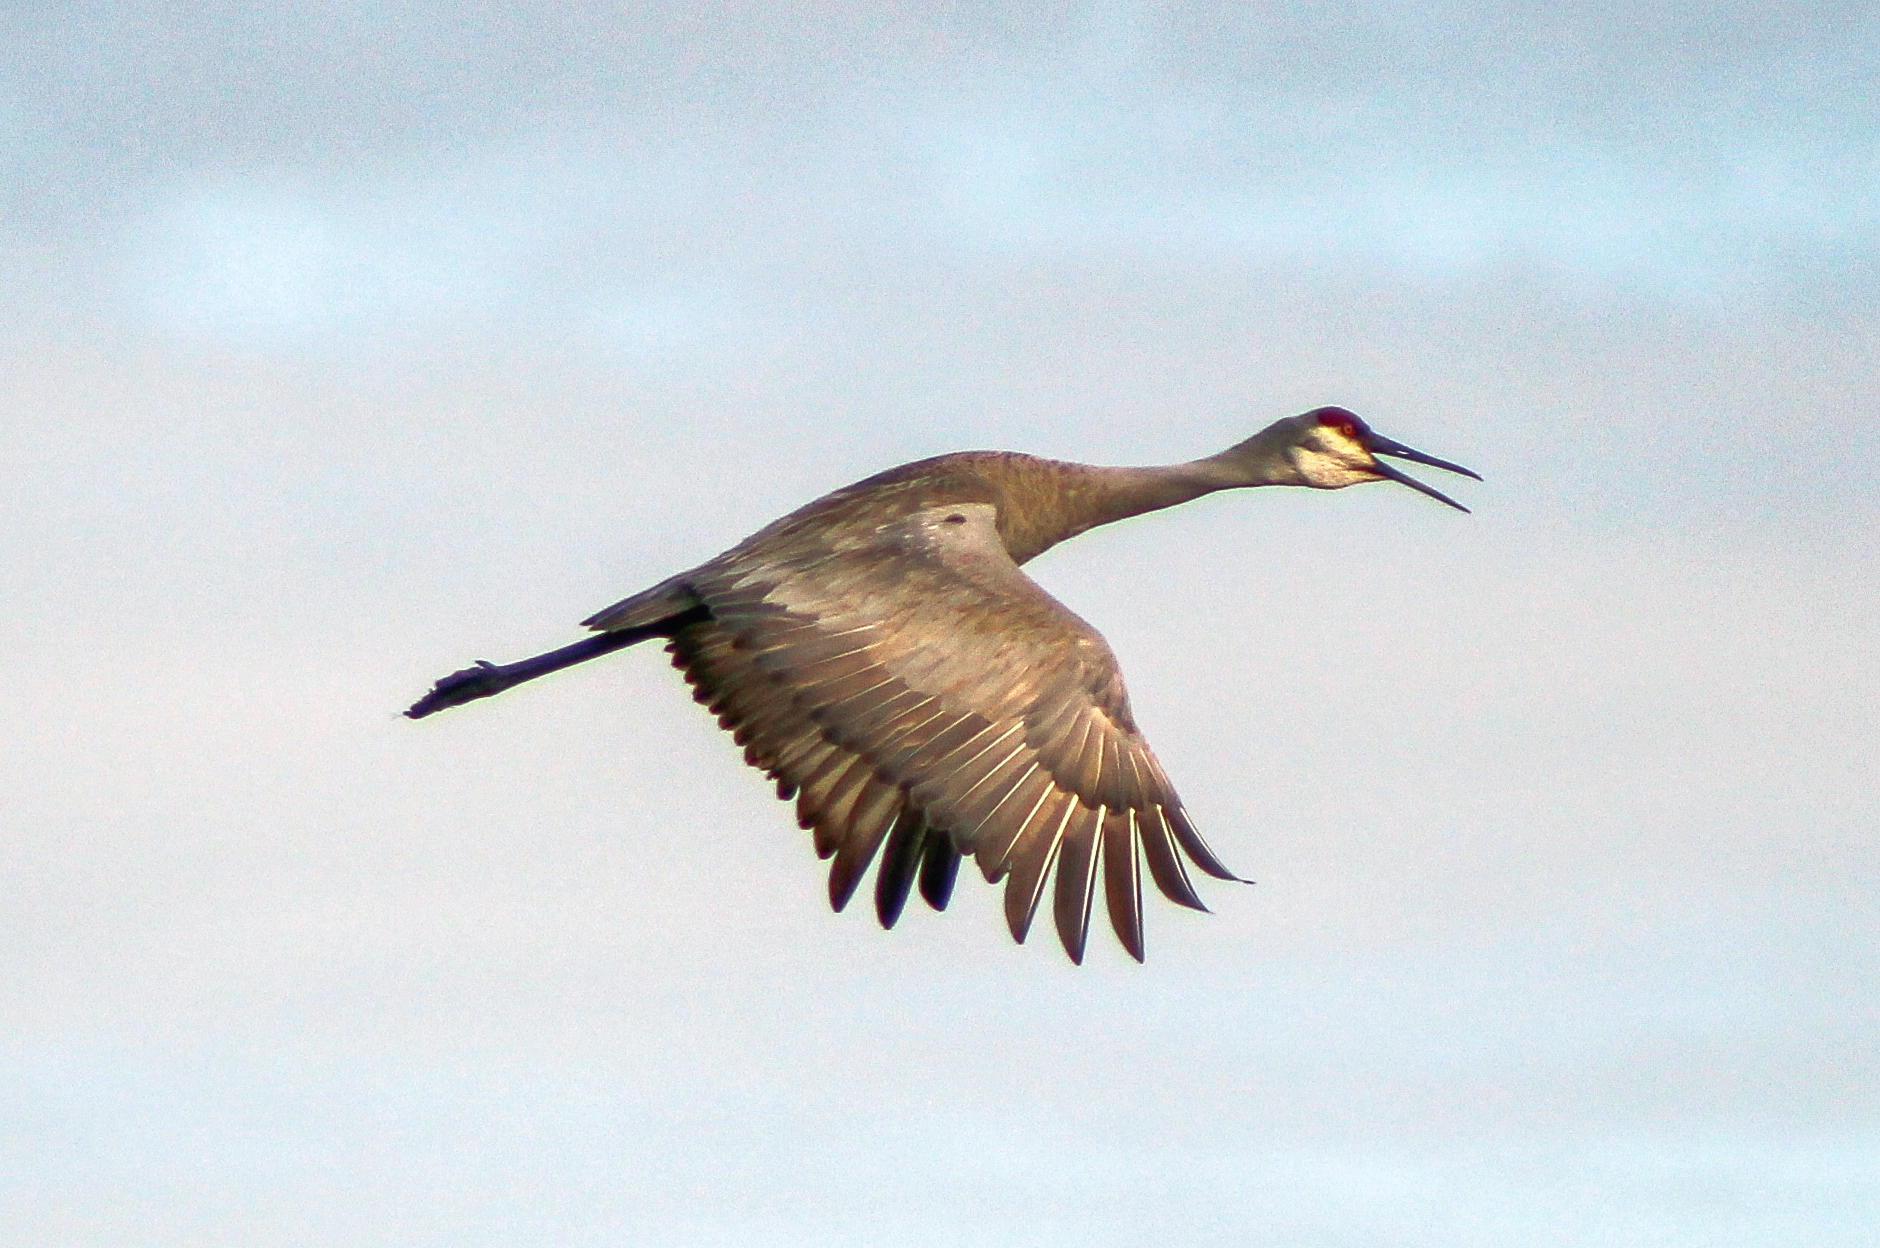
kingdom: Animalia
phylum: Chordata
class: Aves
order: Gruiformes
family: Gruidae
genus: Grus
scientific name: Grus canadensis
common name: Sandhill crane
